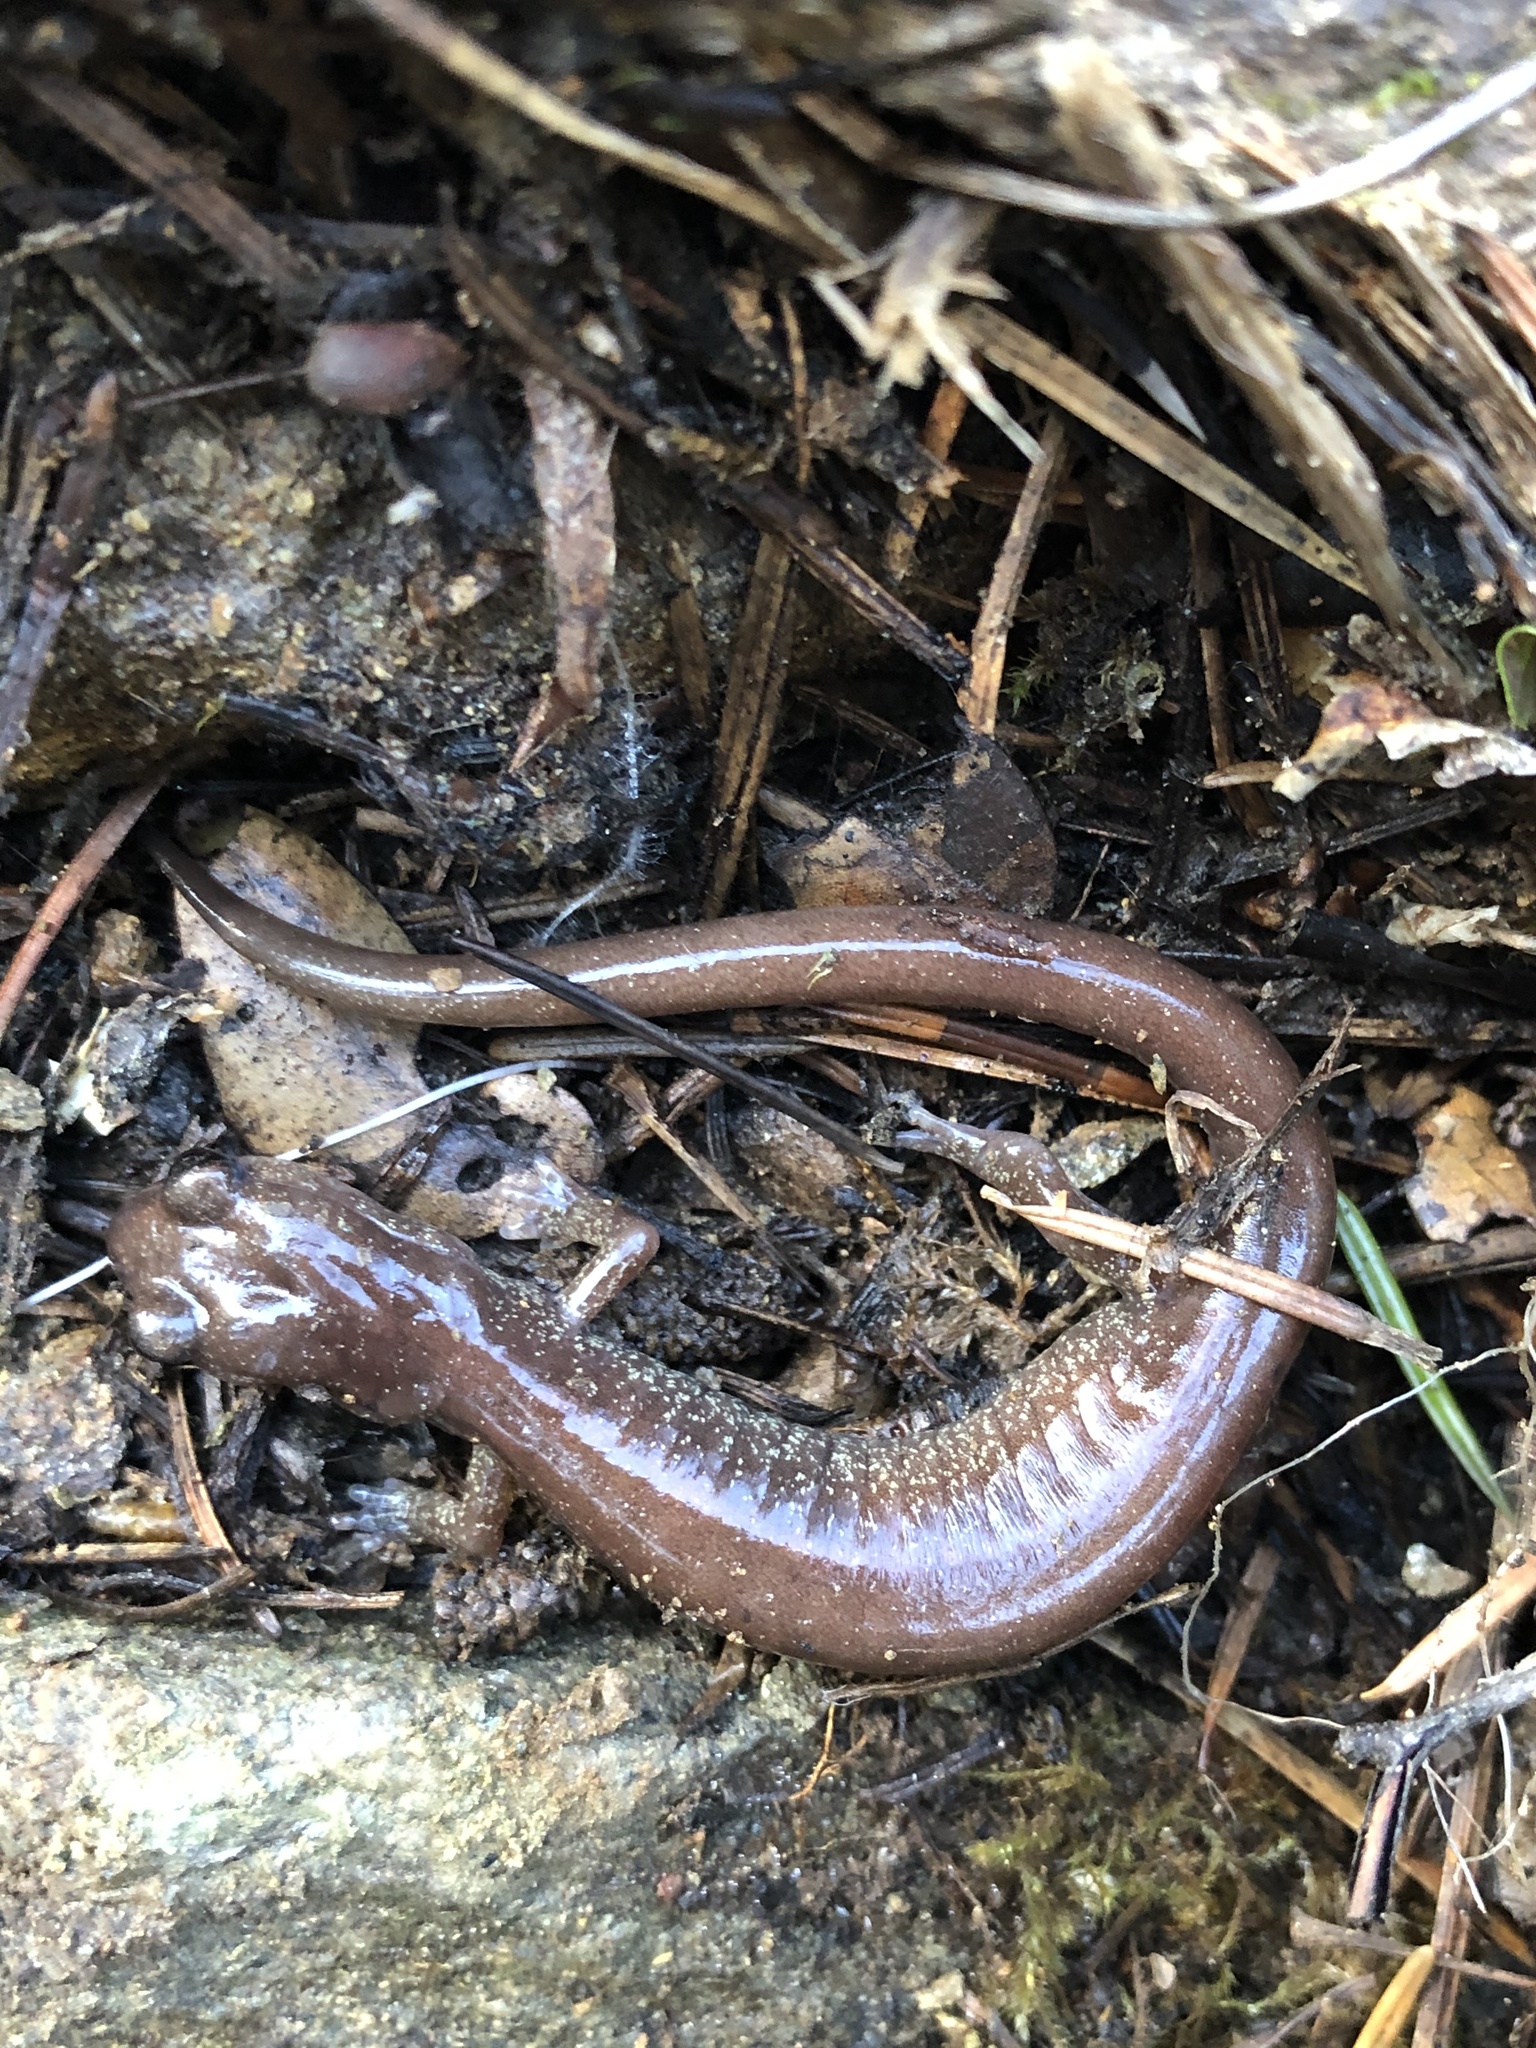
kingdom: Animalia
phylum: Chordata
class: Amphibia
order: Caudata
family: Plethodontidae
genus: Plethodon
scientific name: Plethodon asupak
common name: Scott bar salamander
